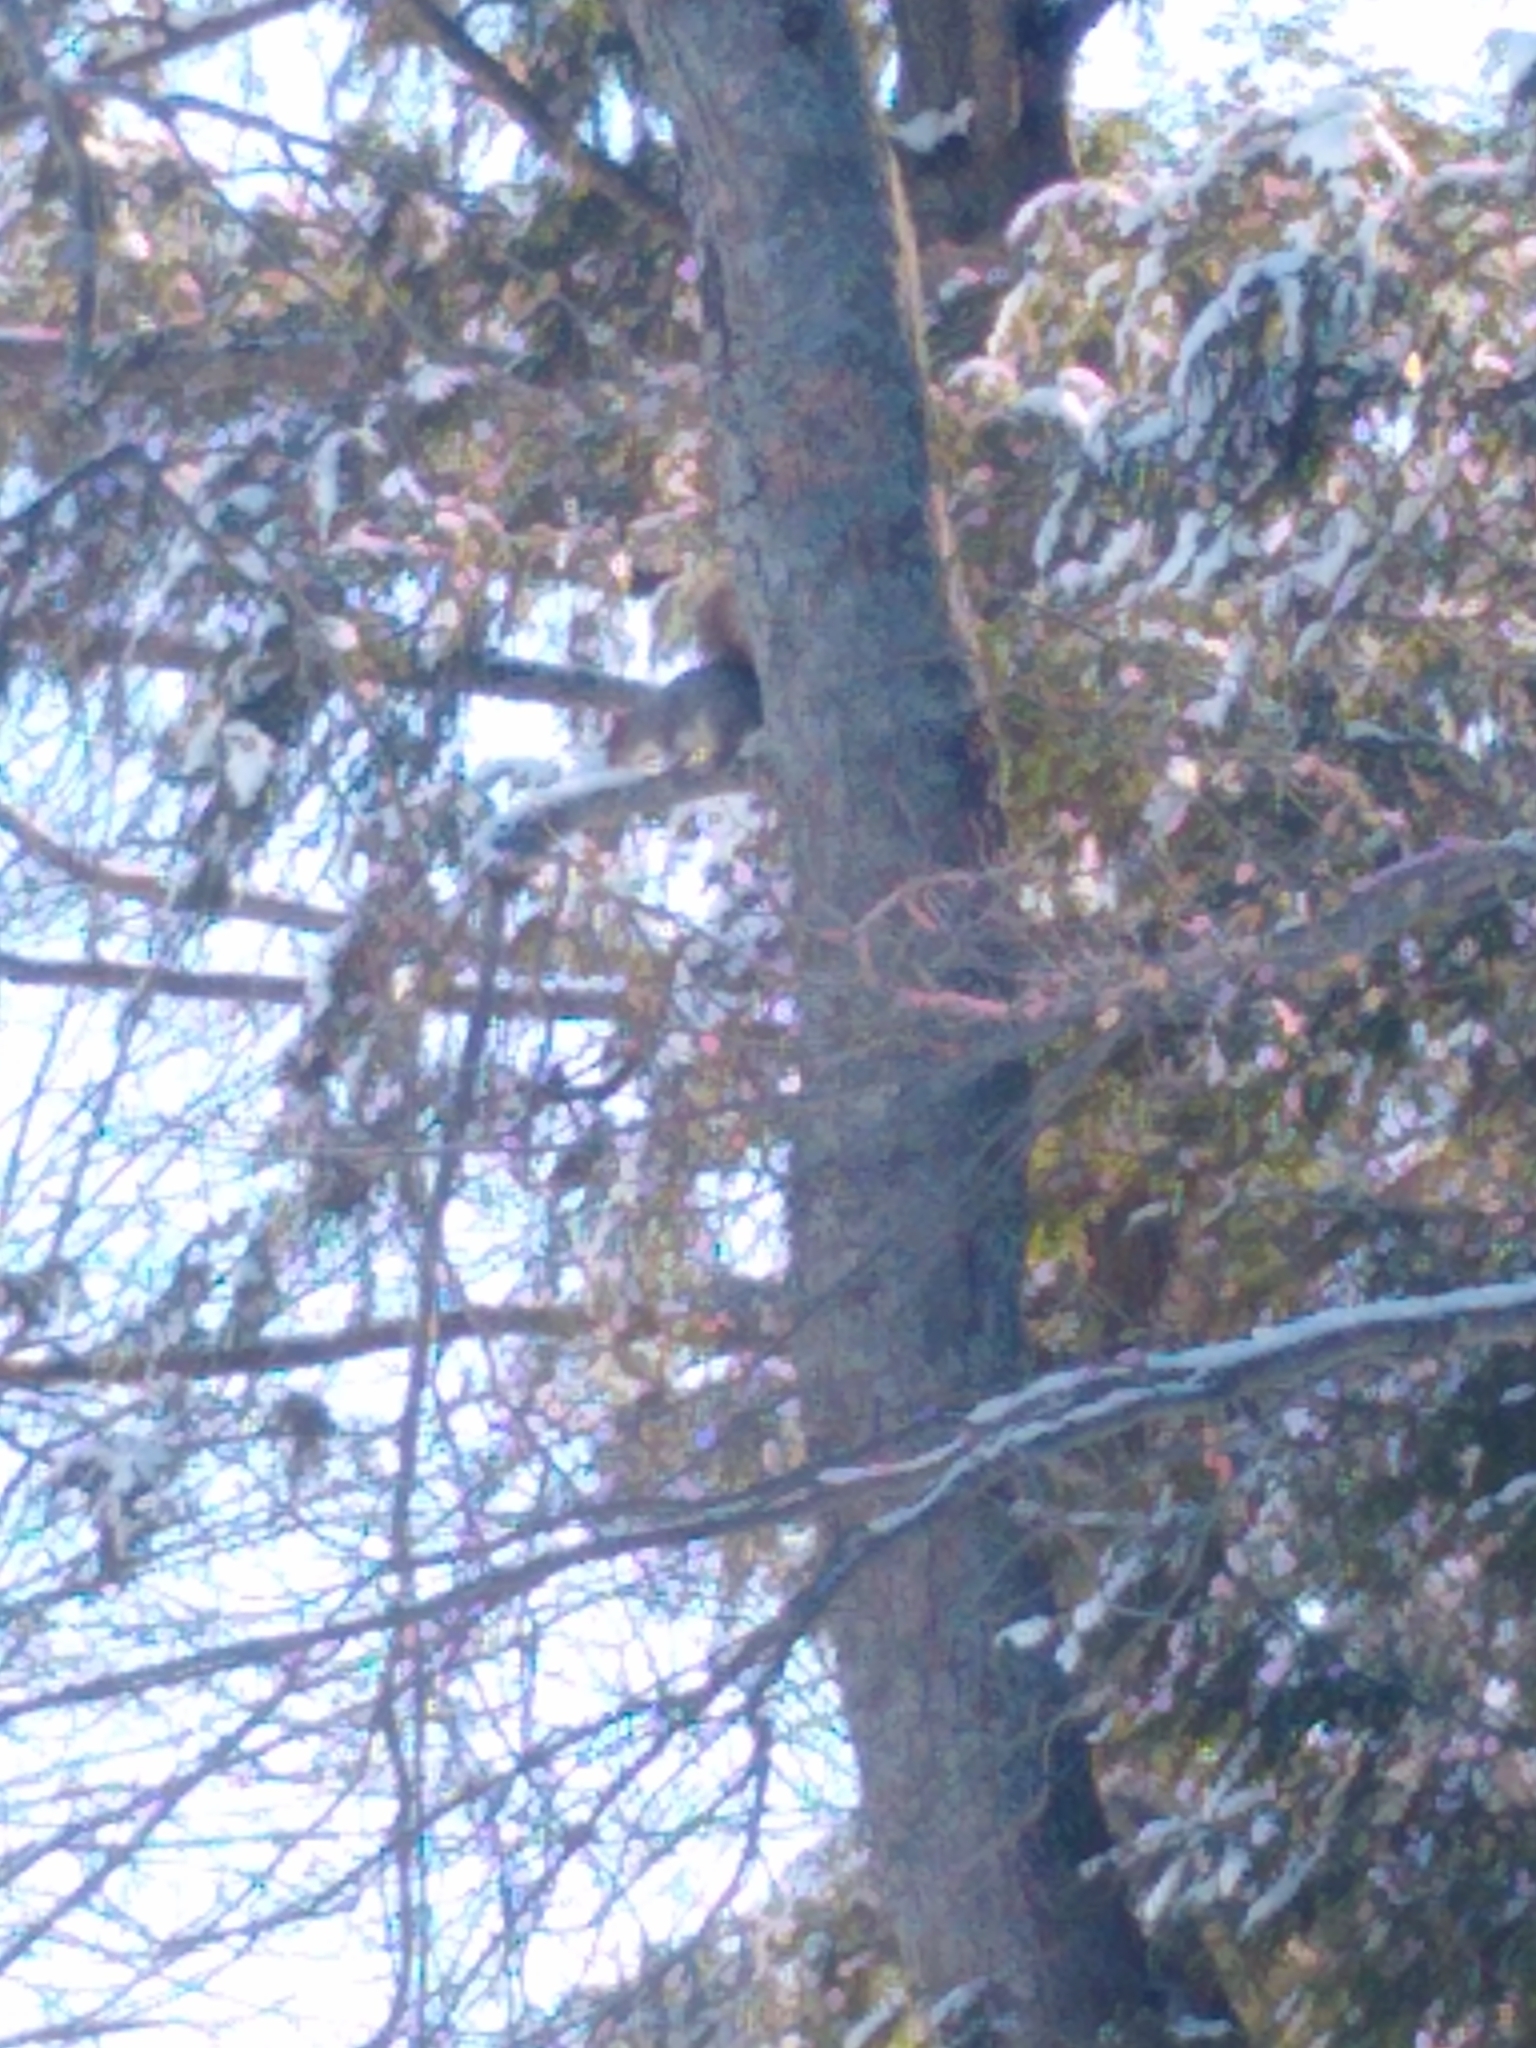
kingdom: Animalia
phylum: Chordata
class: Mammalia
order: Rodentia
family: Sciuridae
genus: Sciurus
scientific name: Sciurus carolinensis
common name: Eastern gray squirrel
